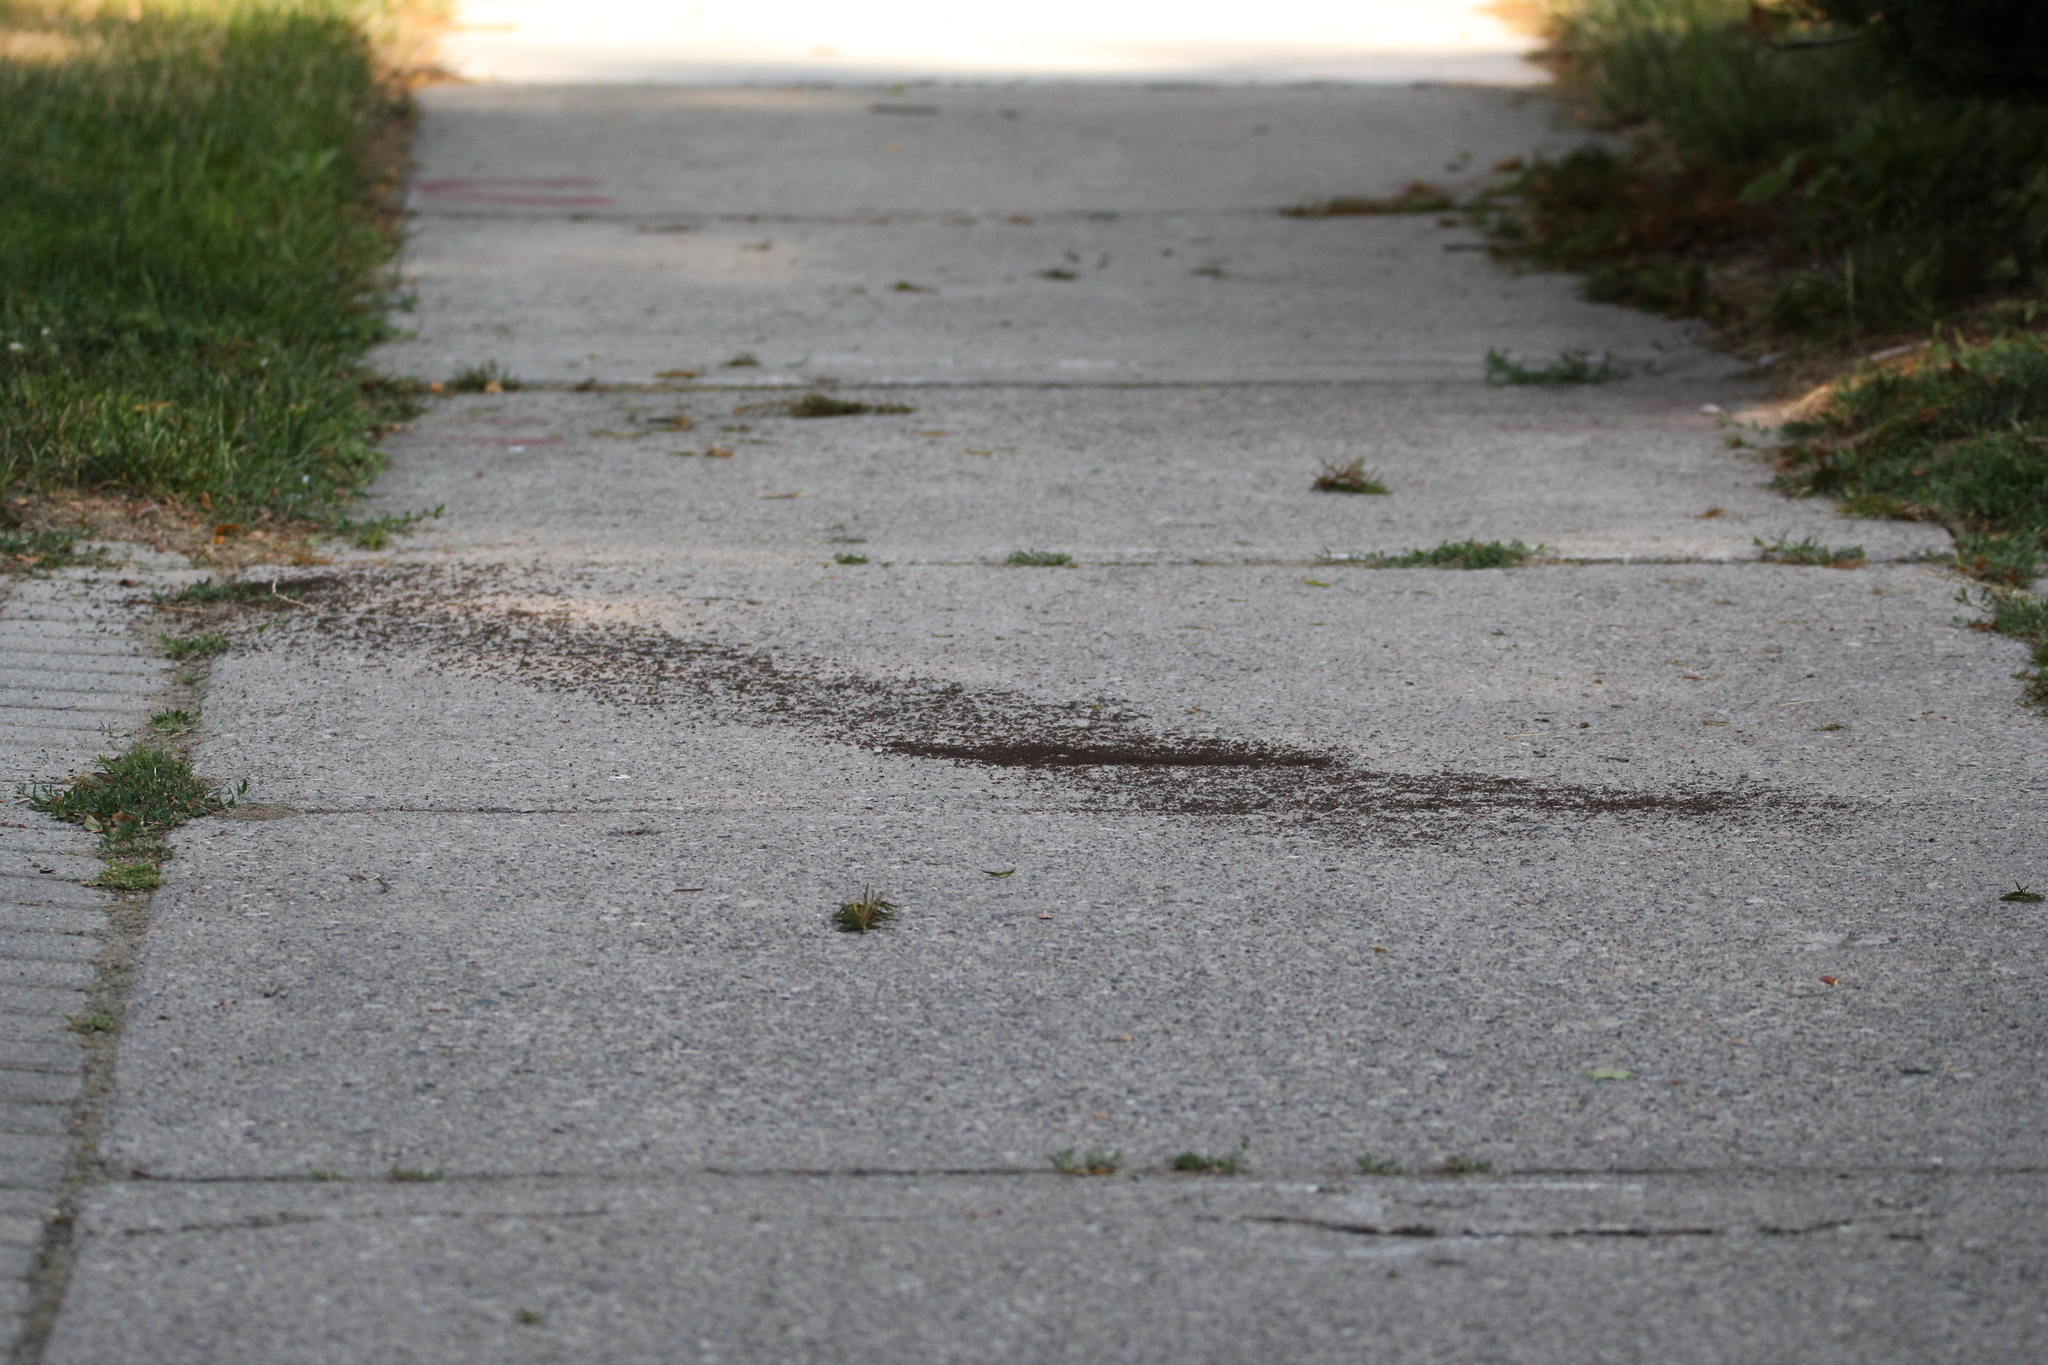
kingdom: Animalia
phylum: Arthropoda
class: Insecta
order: Hymenoptera
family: Formicidae
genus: Tetramorium
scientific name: Tetramorium immigrans
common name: Pavement ant
